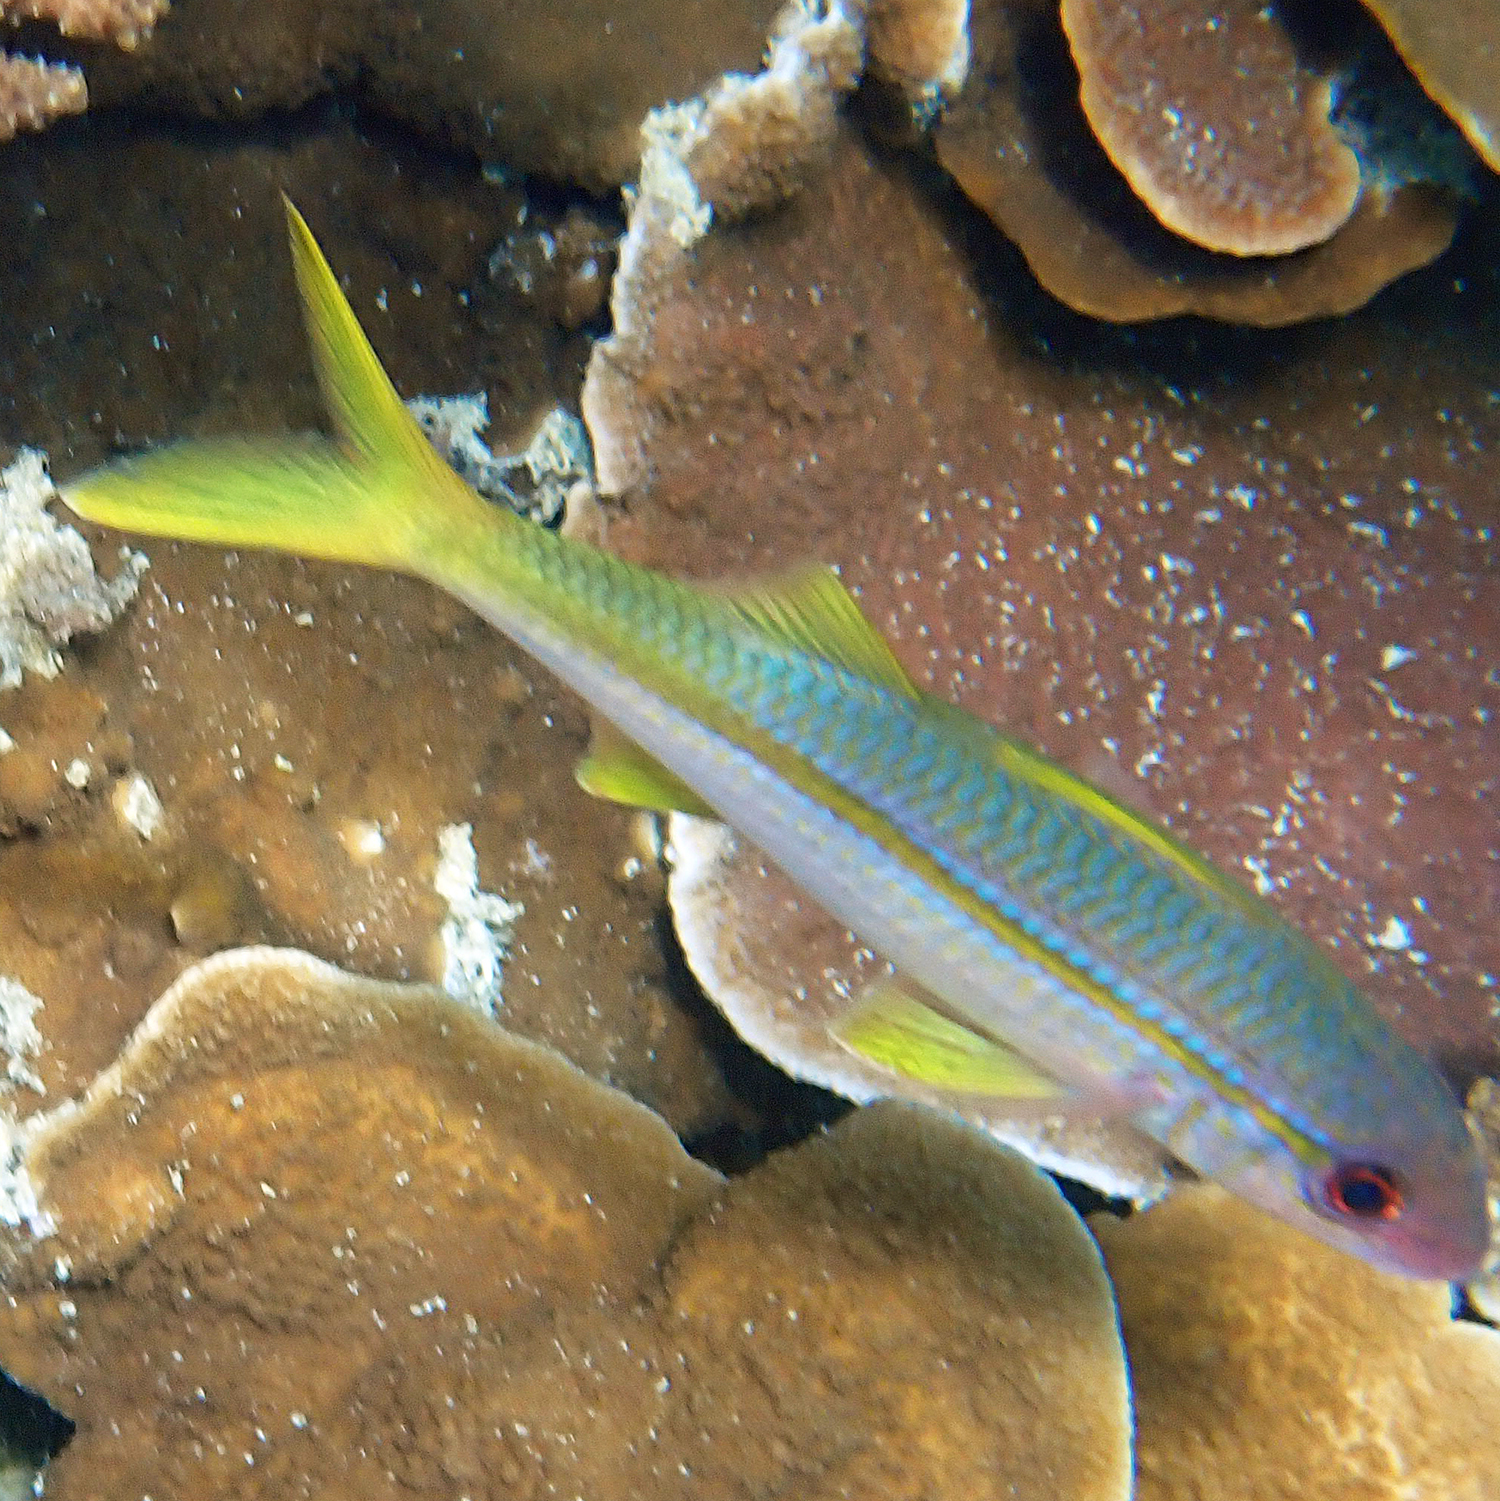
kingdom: Animalia
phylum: Chordata
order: Perciformes
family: Mullidae
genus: Mulloidichthys
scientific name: Mulloidichthys vanicolensis
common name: Yellowfin goatfish
